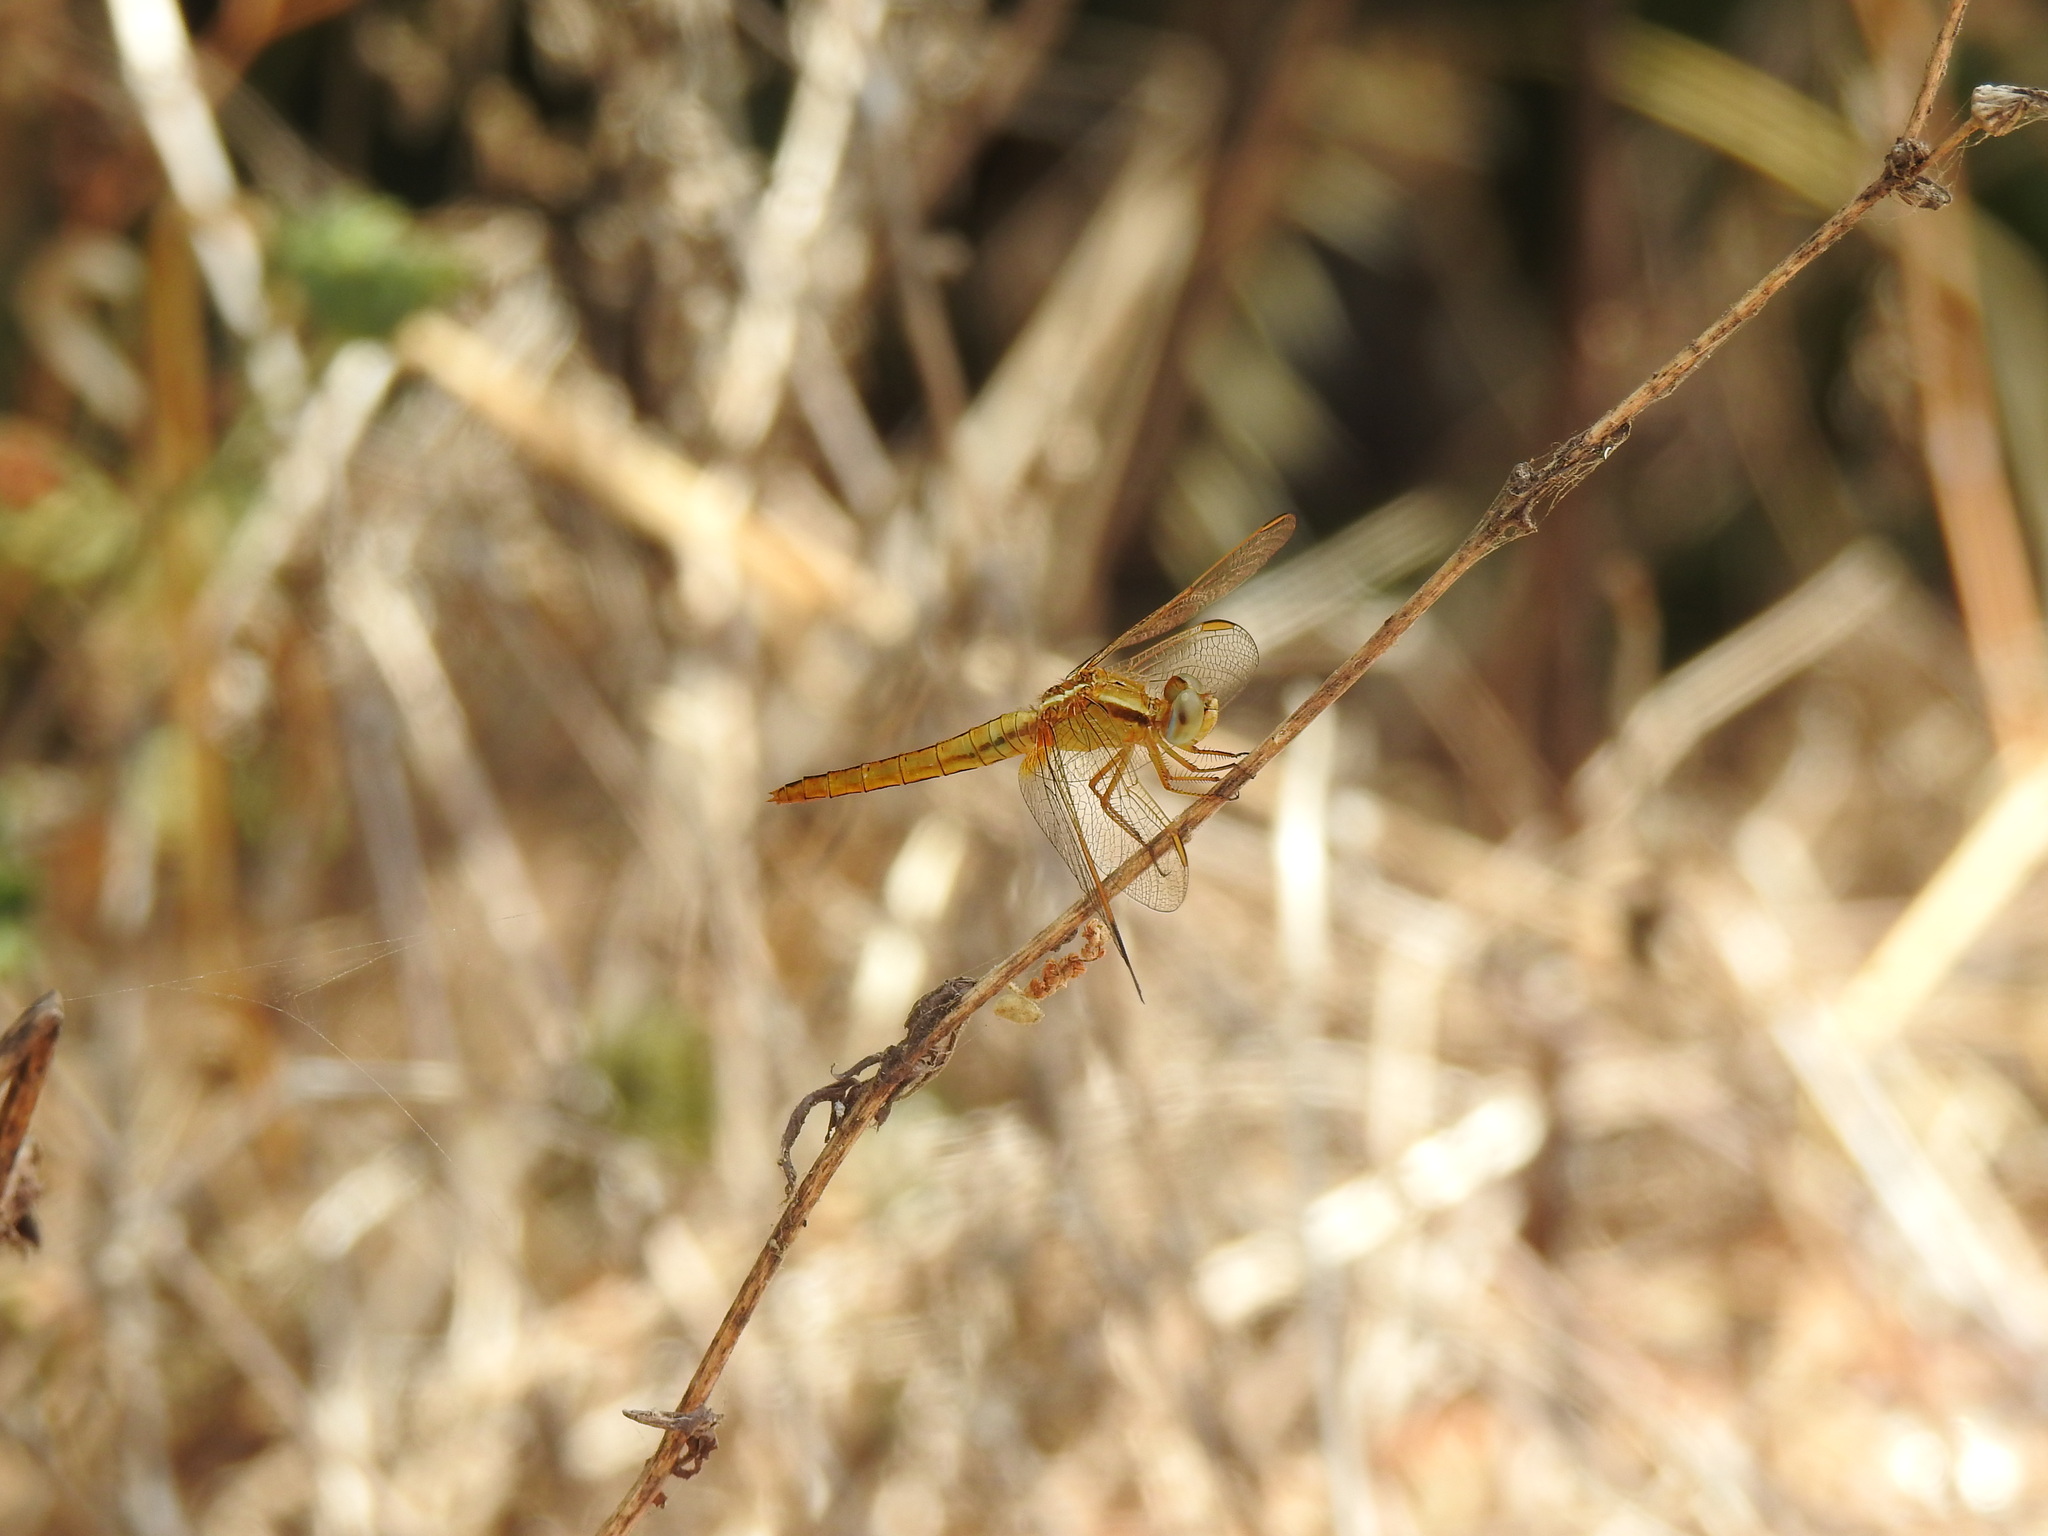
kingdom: Animalia
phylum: Arthropoda
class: Insecta
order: Odonata
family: Libellulidae
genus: Crocothemis
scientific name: Crocothemis erythraea
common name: Scarlet dragonfly
